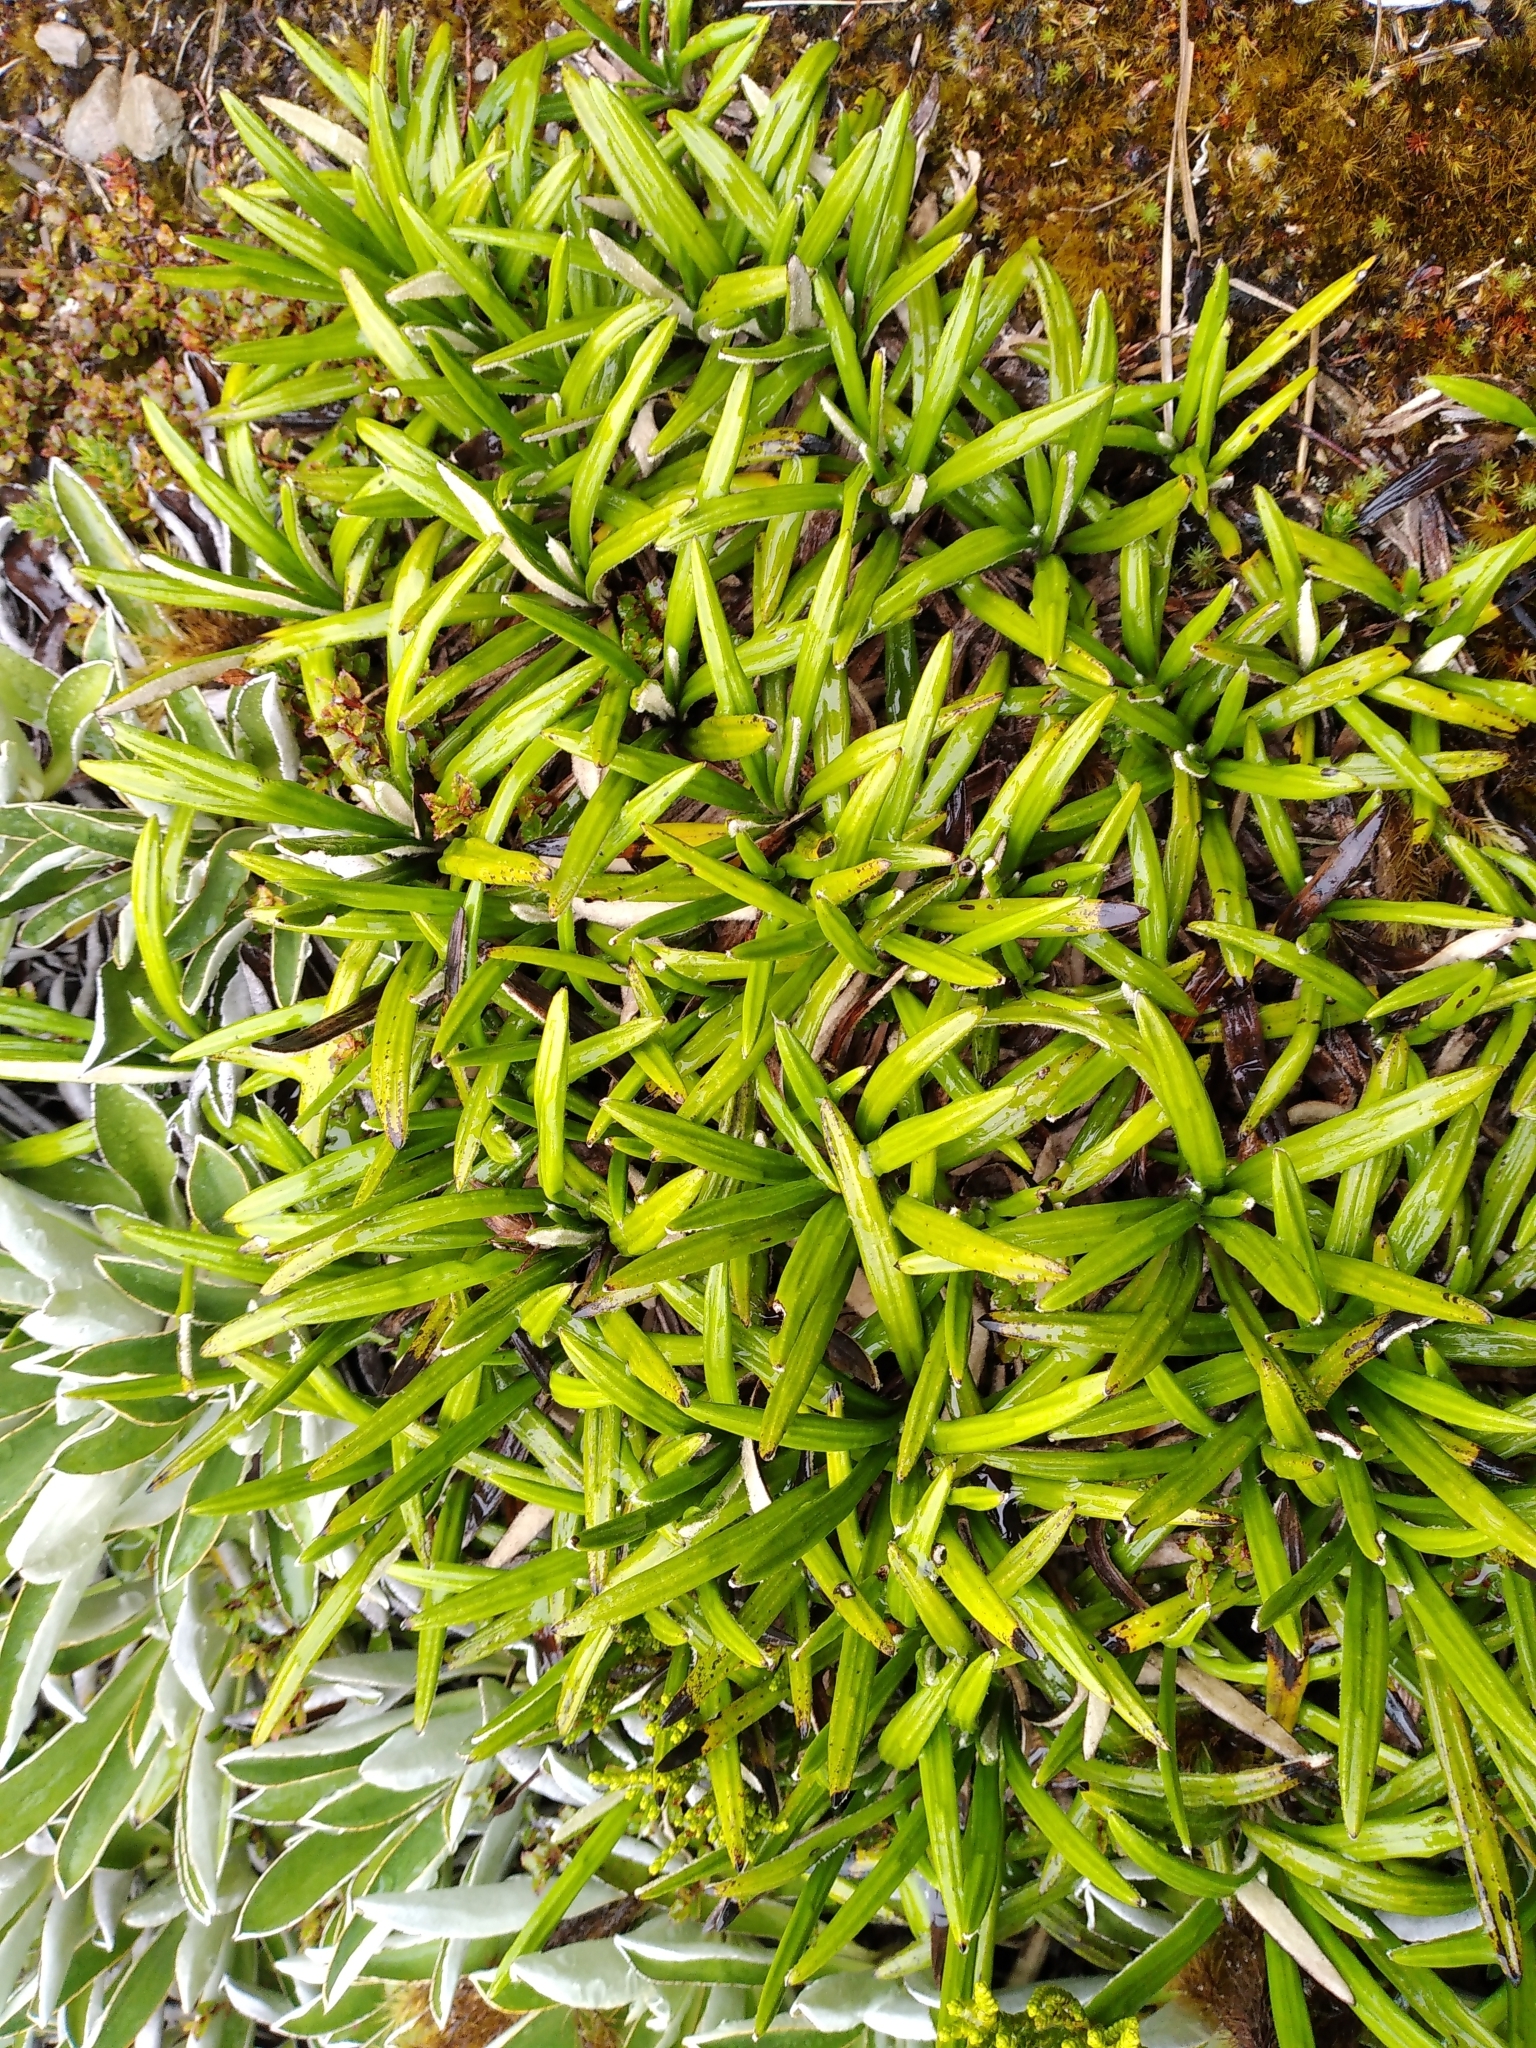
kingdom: Plantae
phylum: Tracheophyta
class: Magnoliopsida
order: Asterales
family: Asteraceae
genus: Celmisia
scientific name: Celmisia spectabilis
